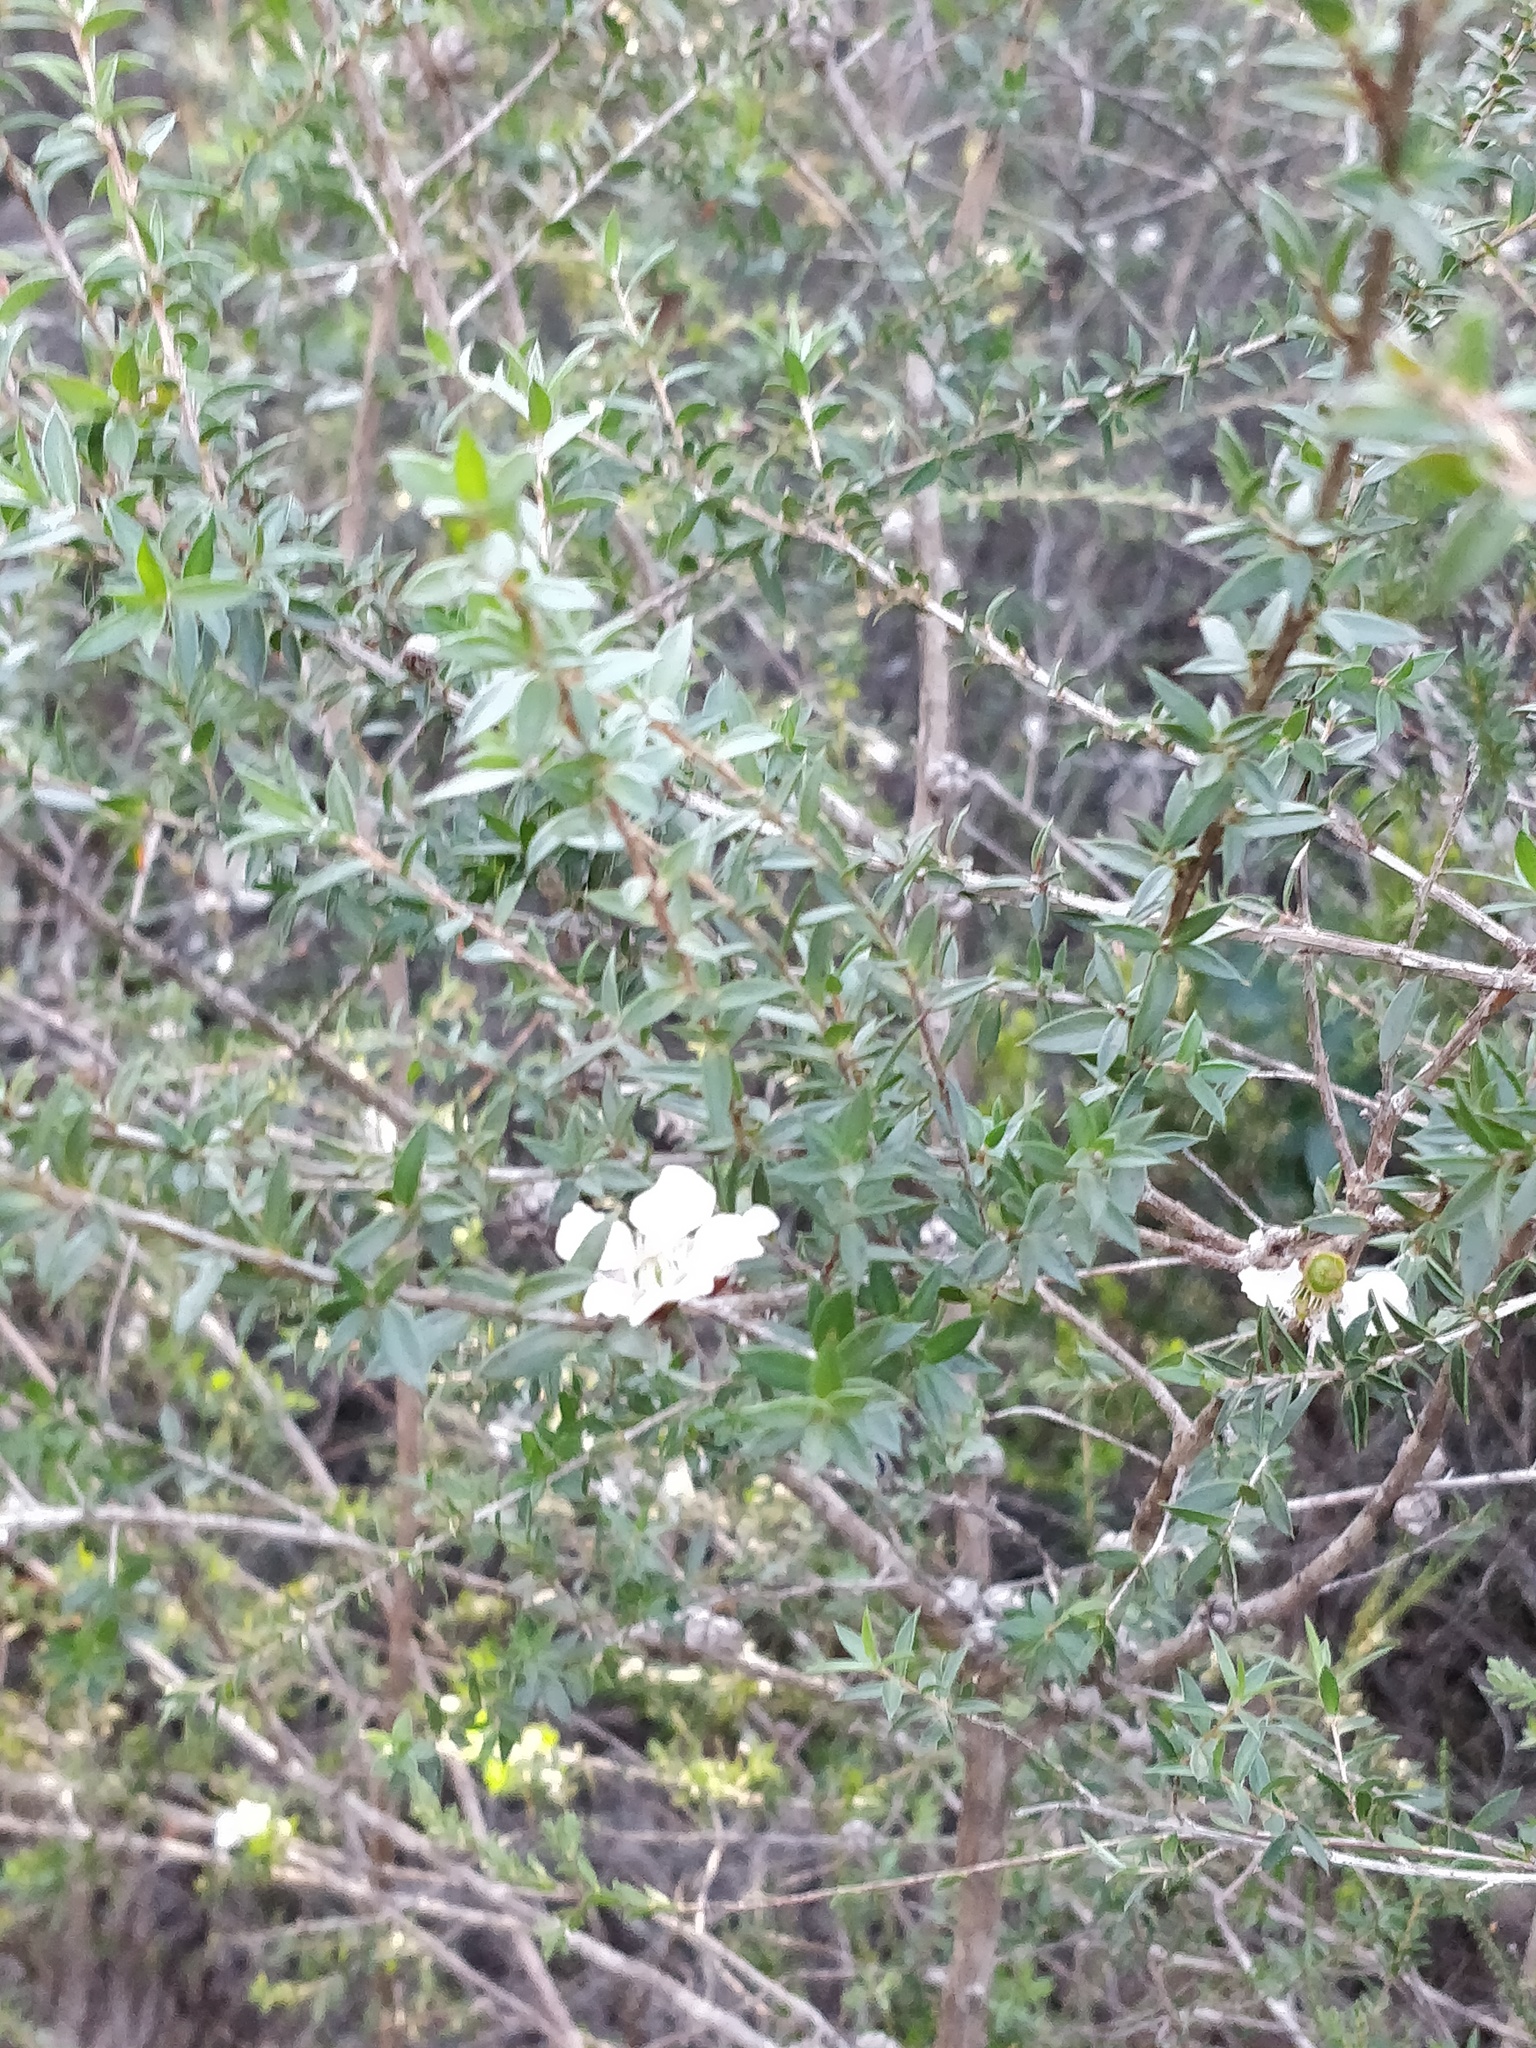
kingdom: Plantae
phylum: Tracheophyta
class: Magnoliopsida
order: Myrtales
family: Myrtaceae
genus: Leptospermum
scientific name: Leptospermum squarrosum
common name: Peach-blossom teatree
